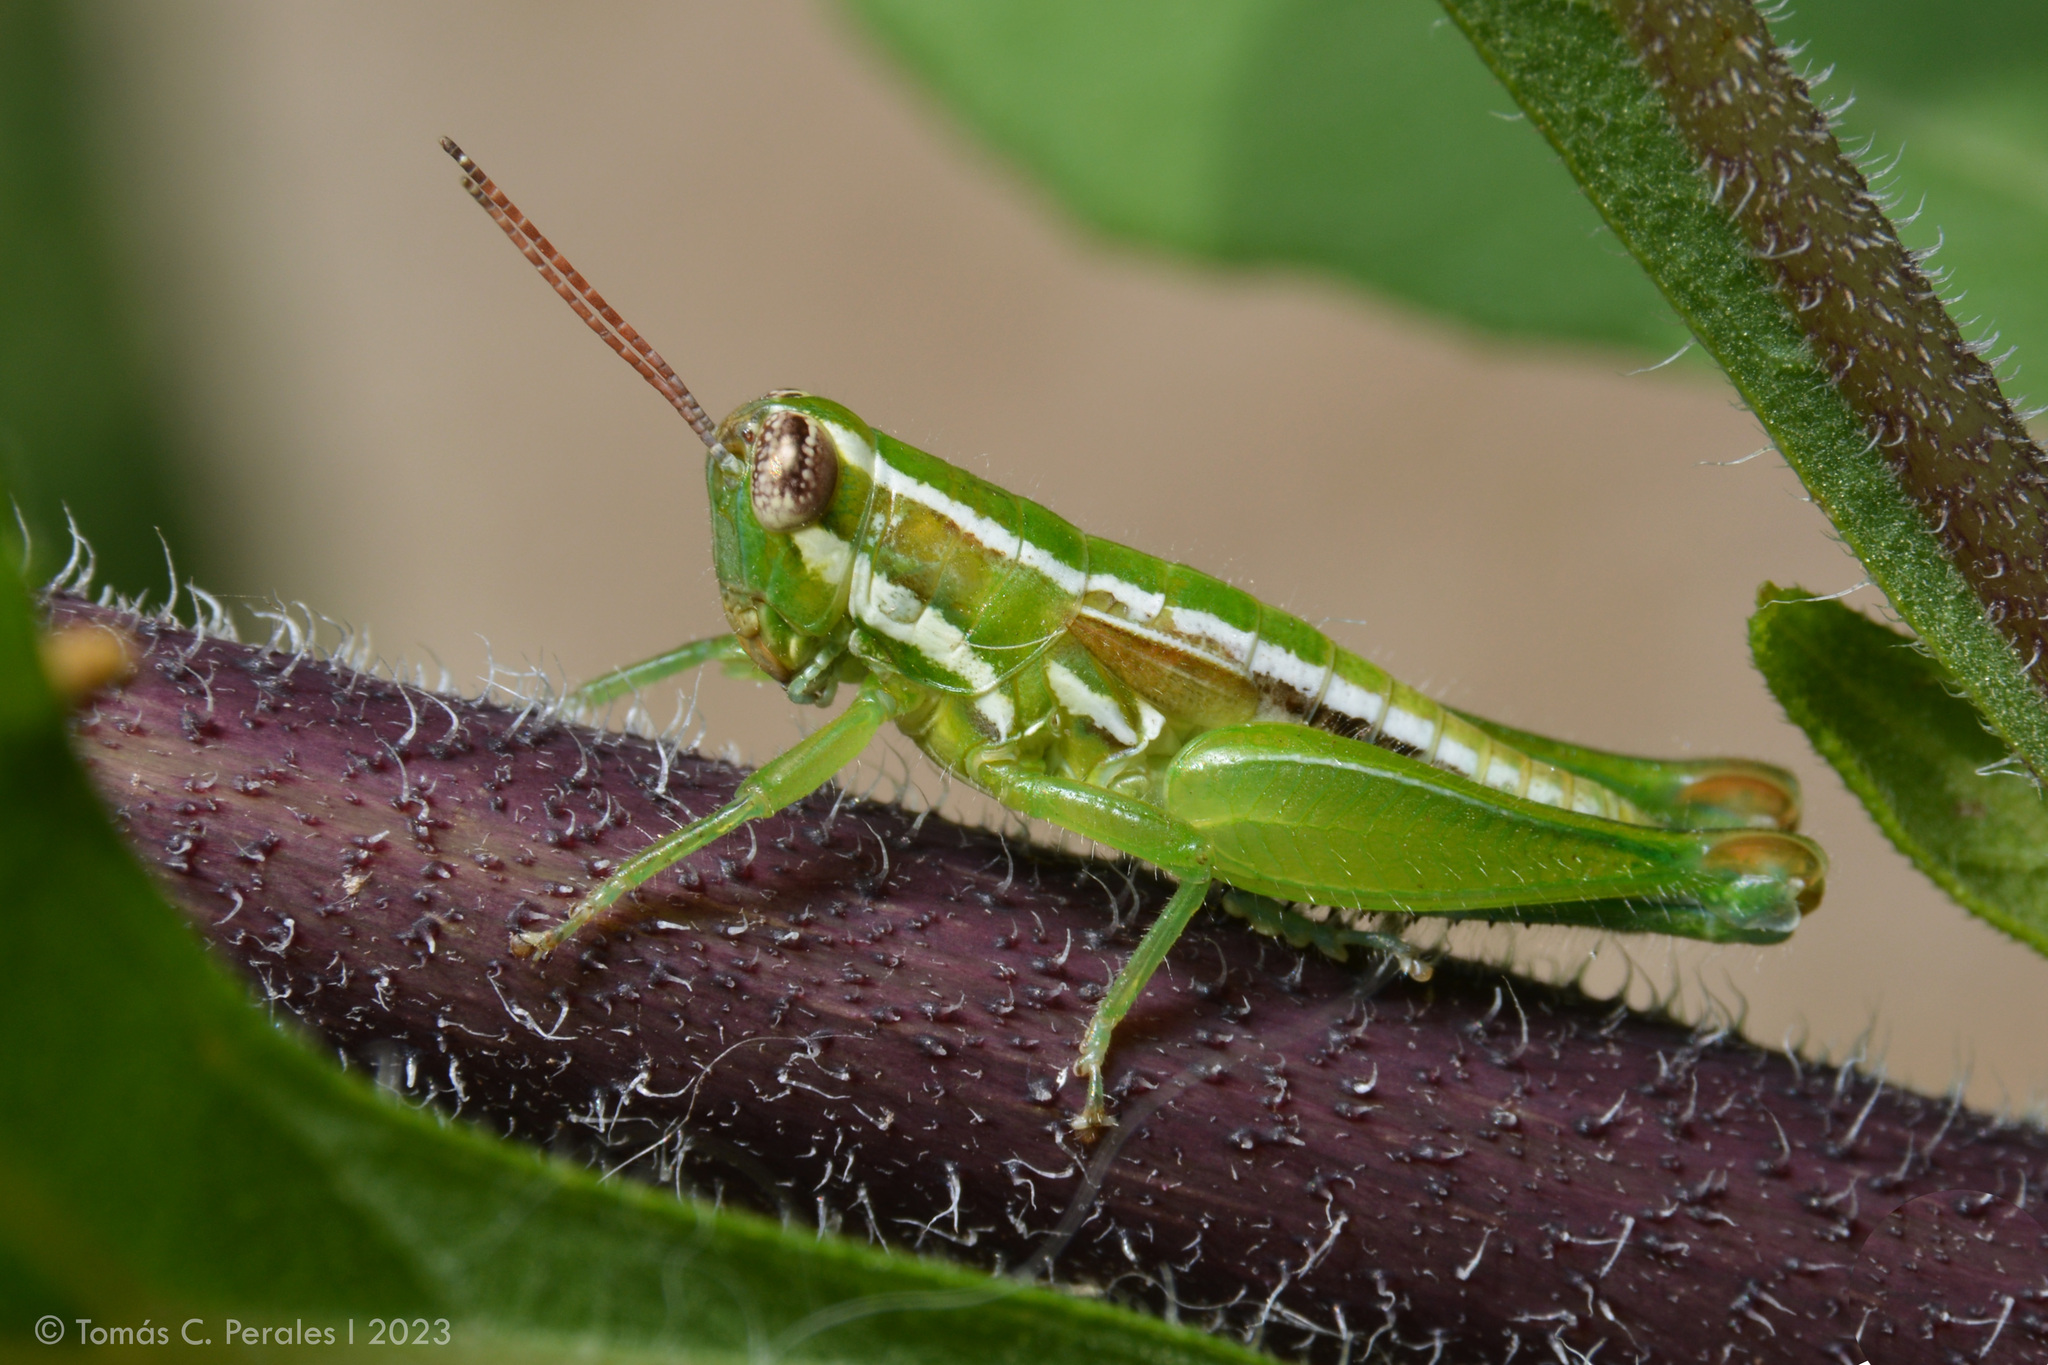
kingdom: Animalia
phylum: Arthropoda
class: Insecta
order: Orthoptera
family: Acrididae
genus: Neopedies
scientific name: Neopedies brunneri
